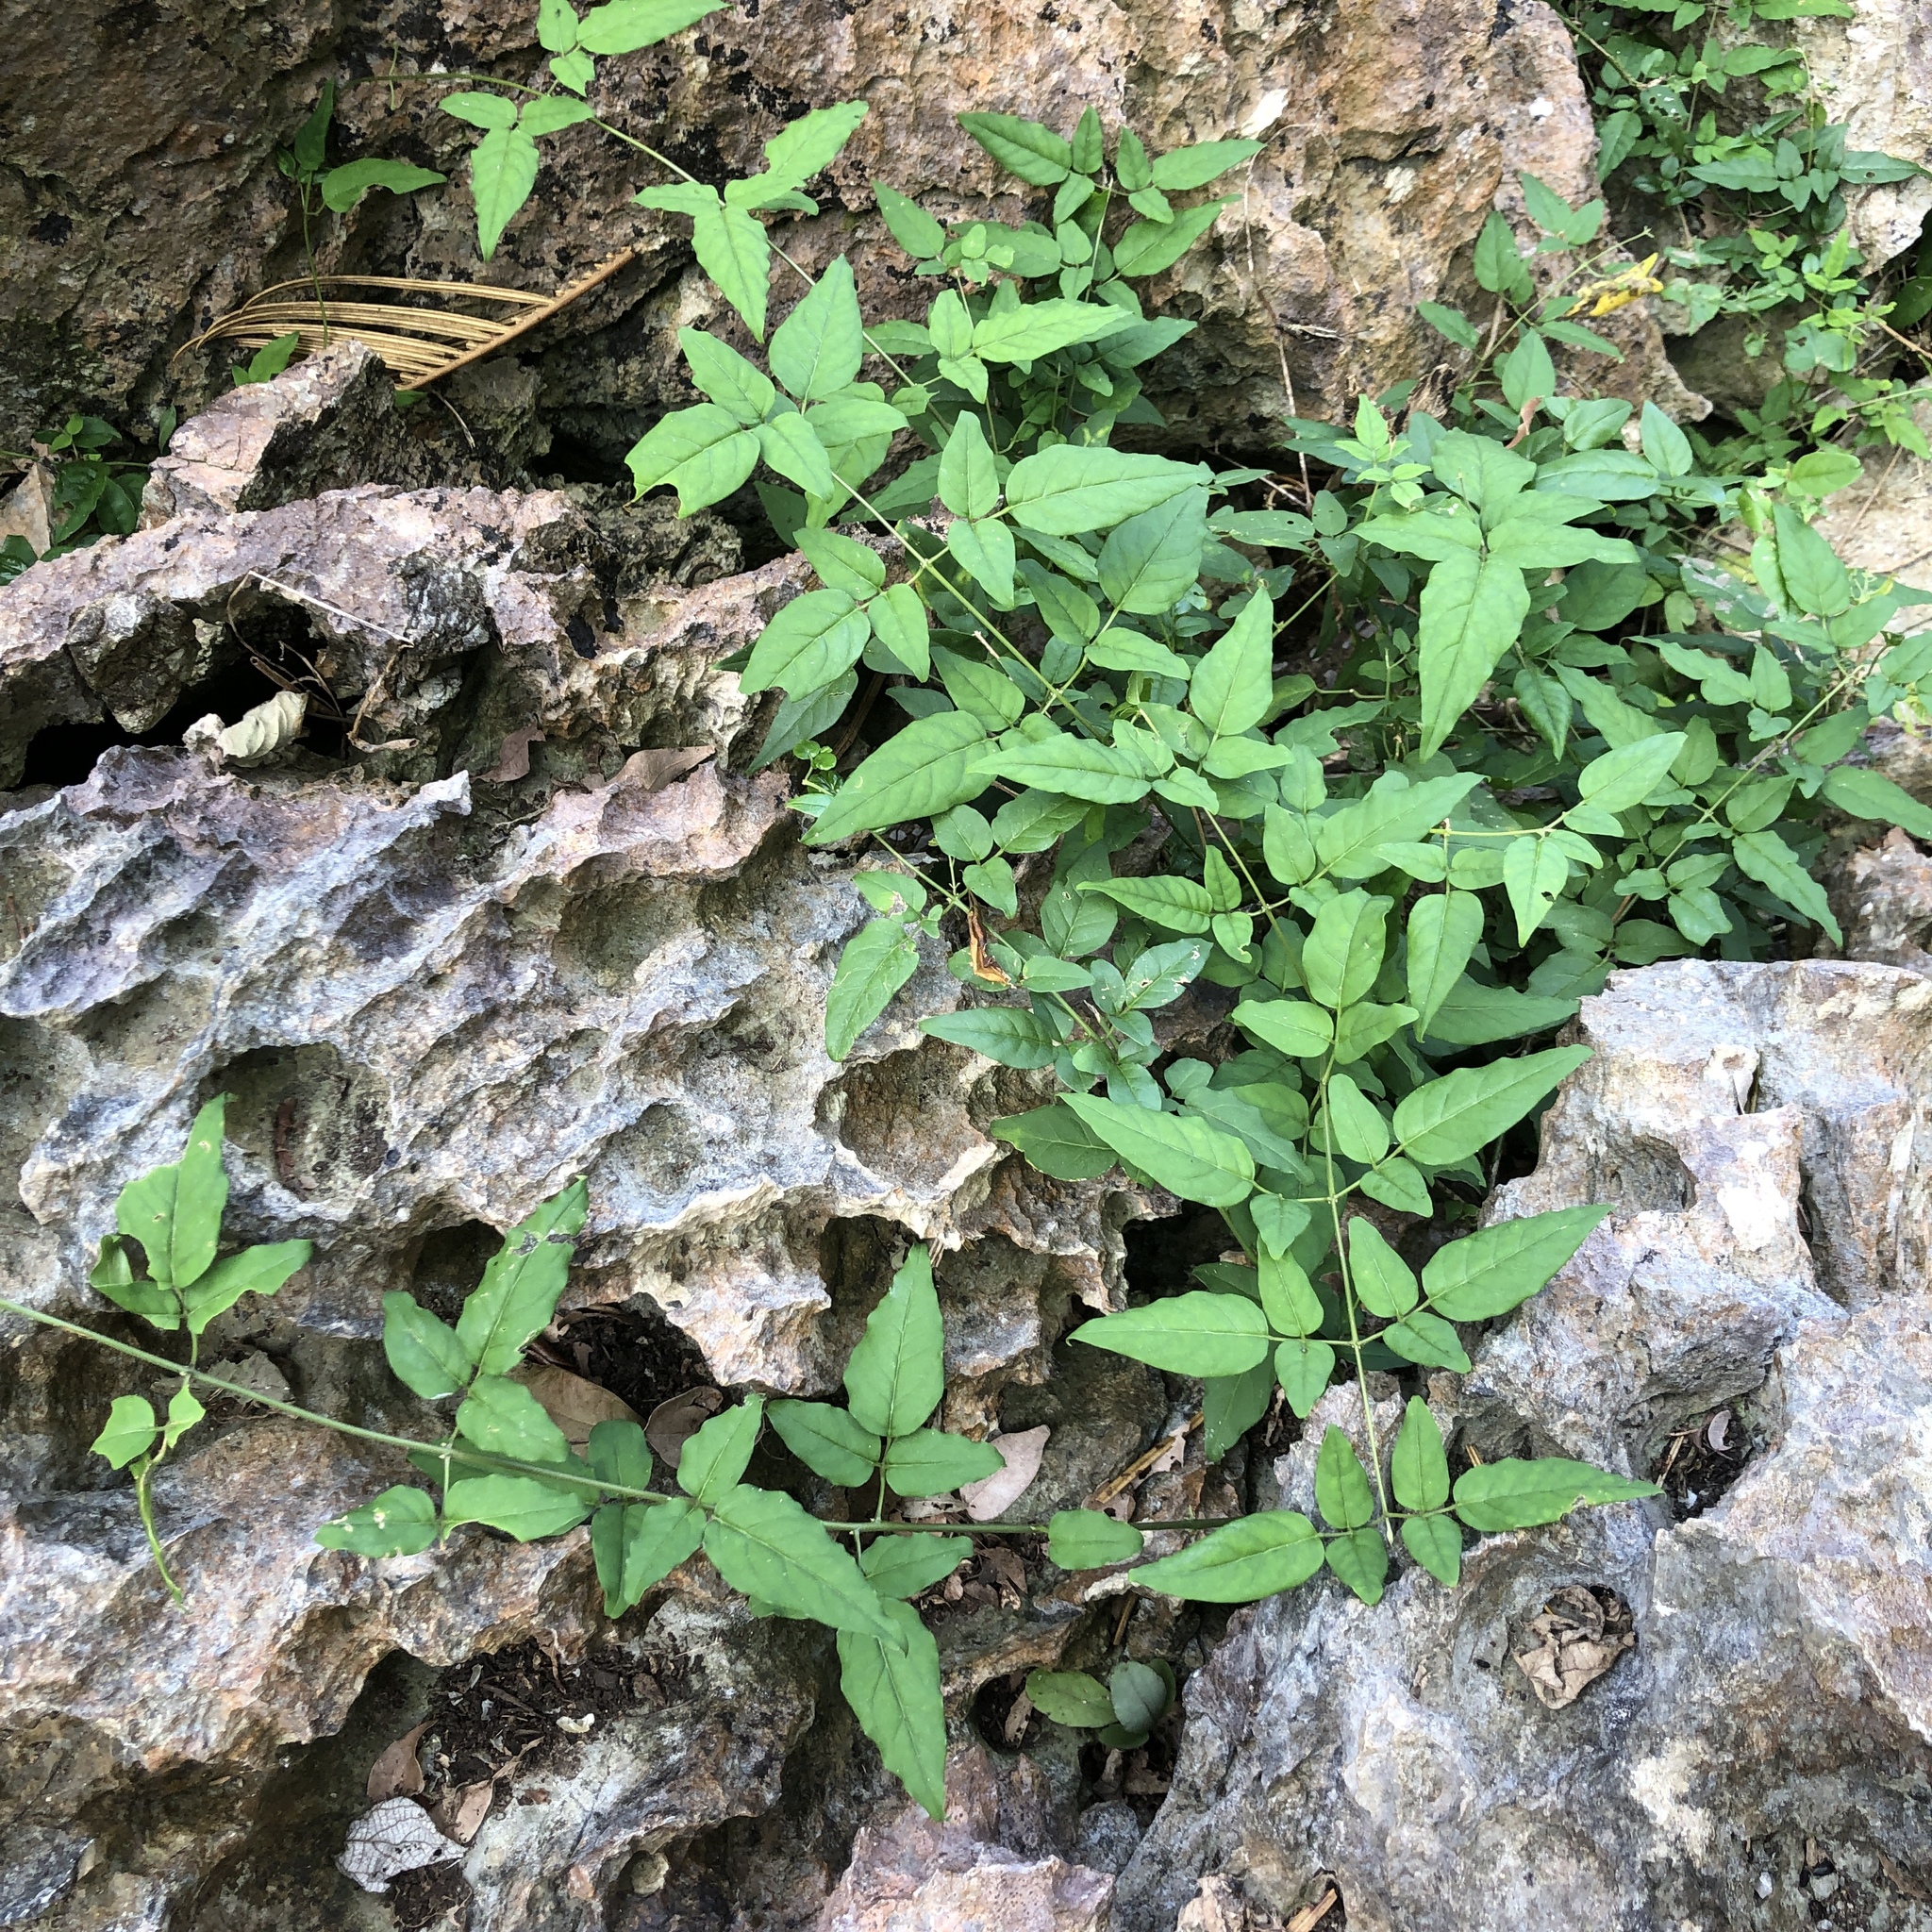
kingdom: Plantae
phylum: Tracheophyta
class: Magnoliopsida
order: Lamiales
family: Oleaceae
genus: Jasminum
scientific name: Jasminum lanceolaria
